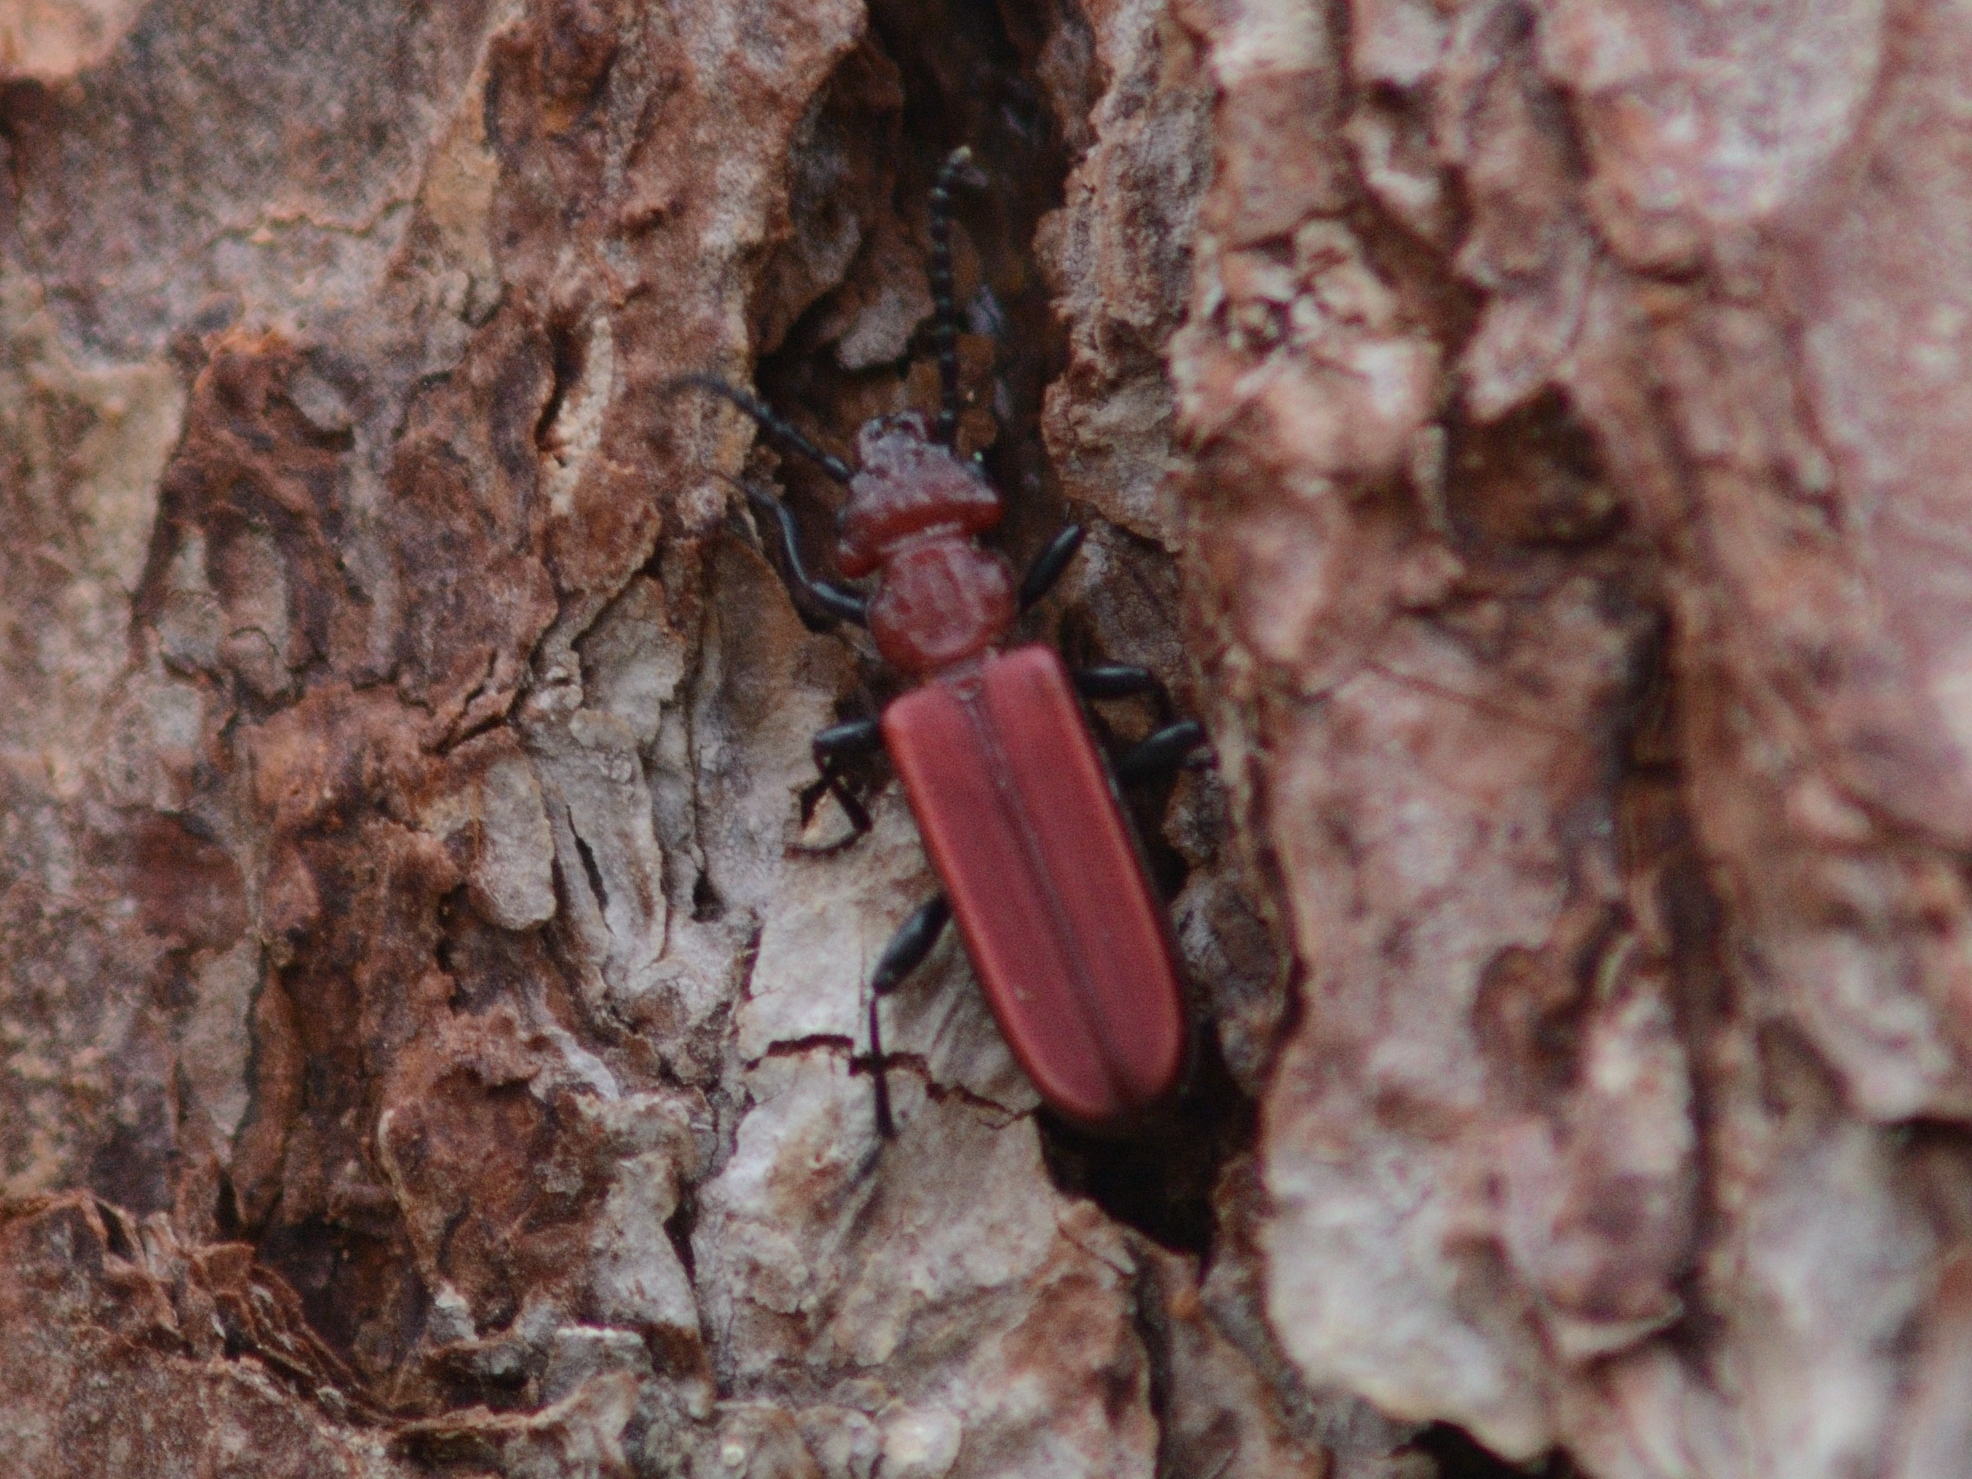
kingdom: Animalia
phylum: Arthropoda
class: Insecta
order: Coleoptera
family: Cucujidae
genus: Cucujus
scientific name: Cucujus haematodes
